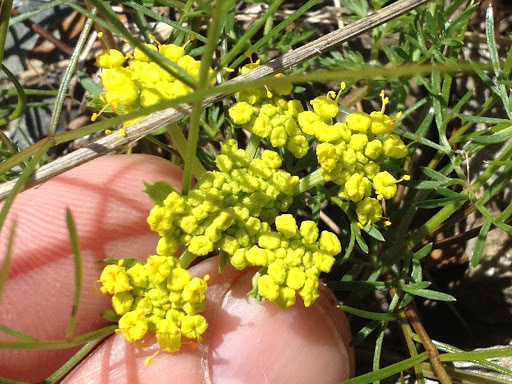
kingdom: Plantae
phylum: Tracheophyta
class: Magnoliopsida
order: Apiales
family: Apiaceae
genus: Lomatium
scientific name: Lomatium utriculatum
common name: Fine-leaf desert-parsley
